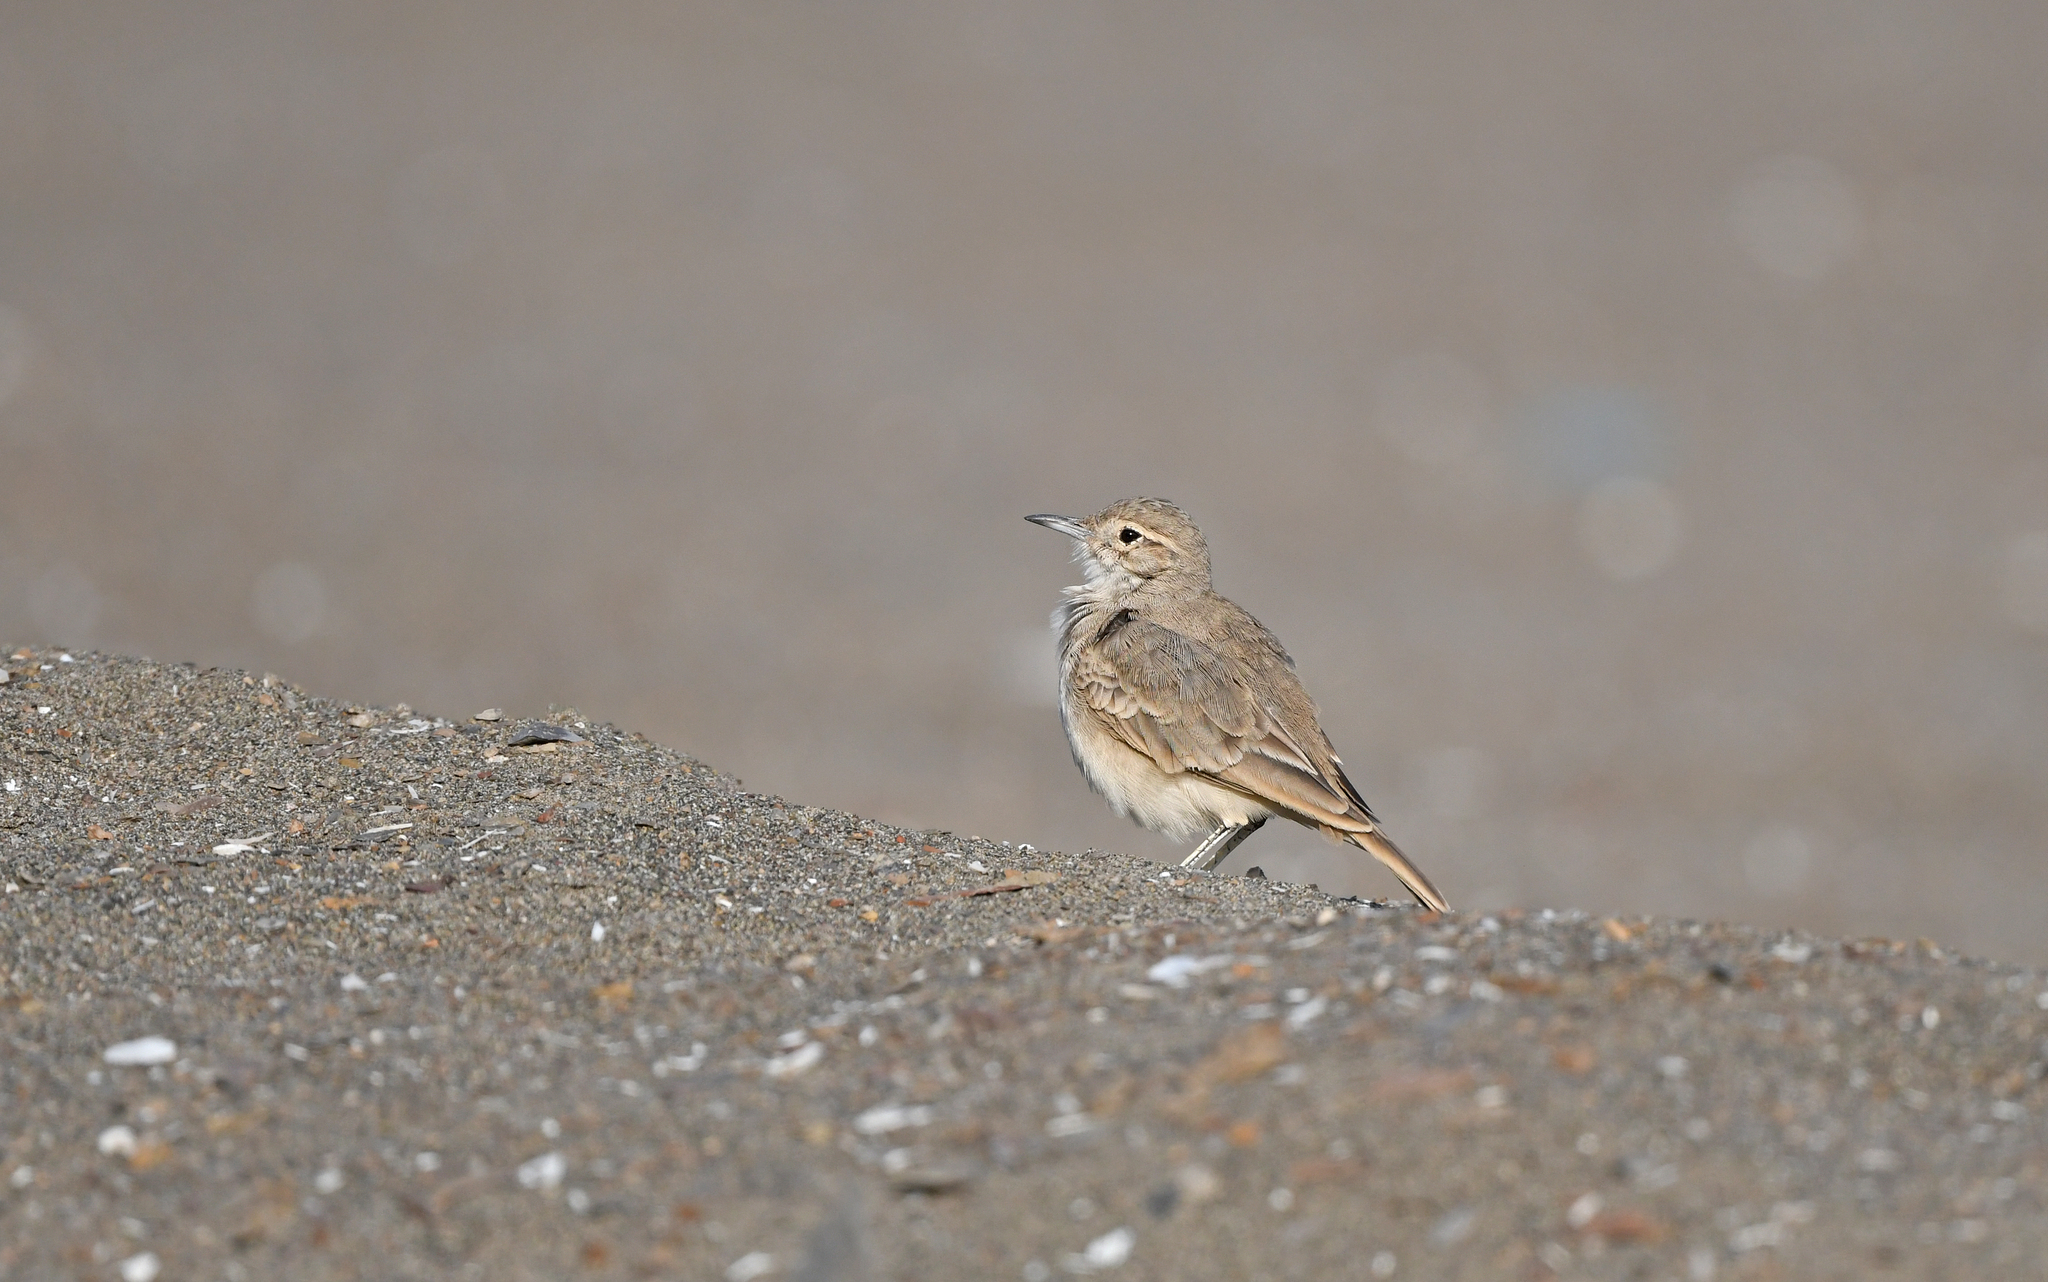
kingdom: Animalia
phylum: Chordata
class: Aves
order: Passeriformes
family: Furnariidae
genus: Geositta
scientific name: Geositta peruviana
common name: Coastal miner
